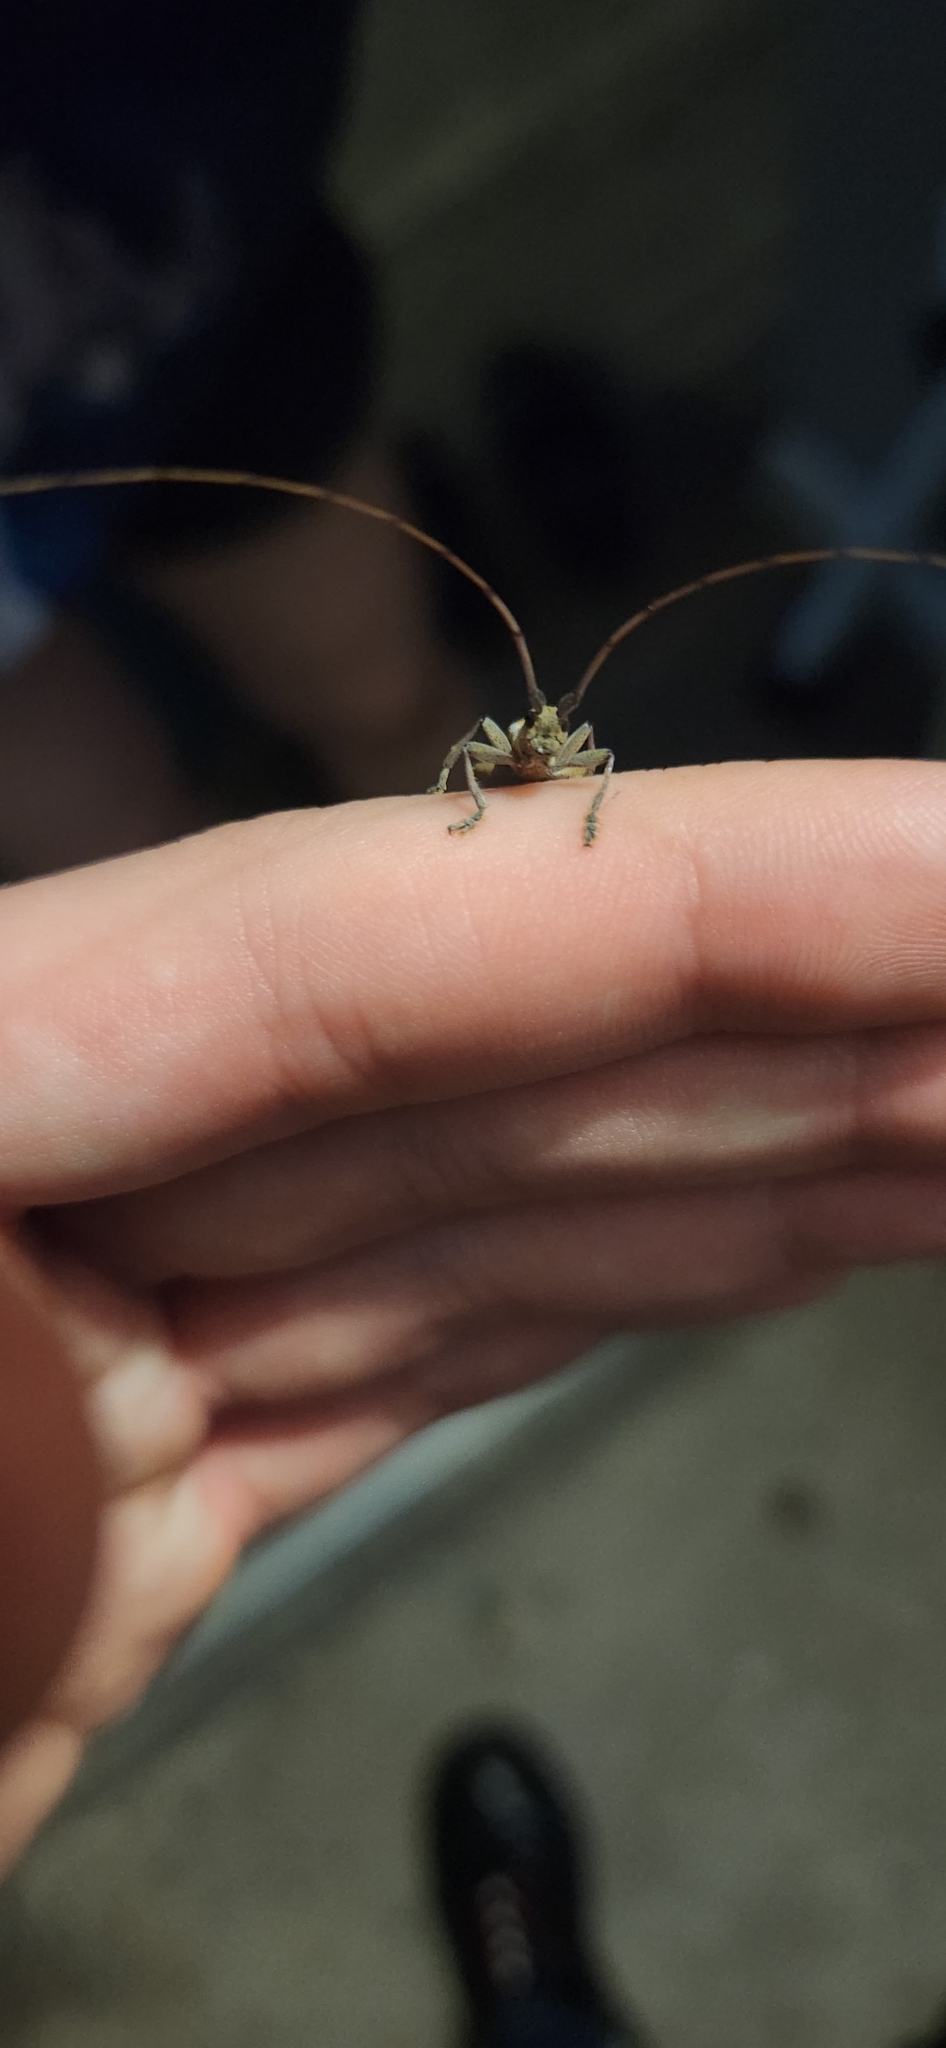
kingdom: Animalia
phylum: Arthropoda
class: Insecta
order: Coleoptera
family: Cerambycidae
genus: Dorcaschema
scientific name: Dorcaschema alternatum
